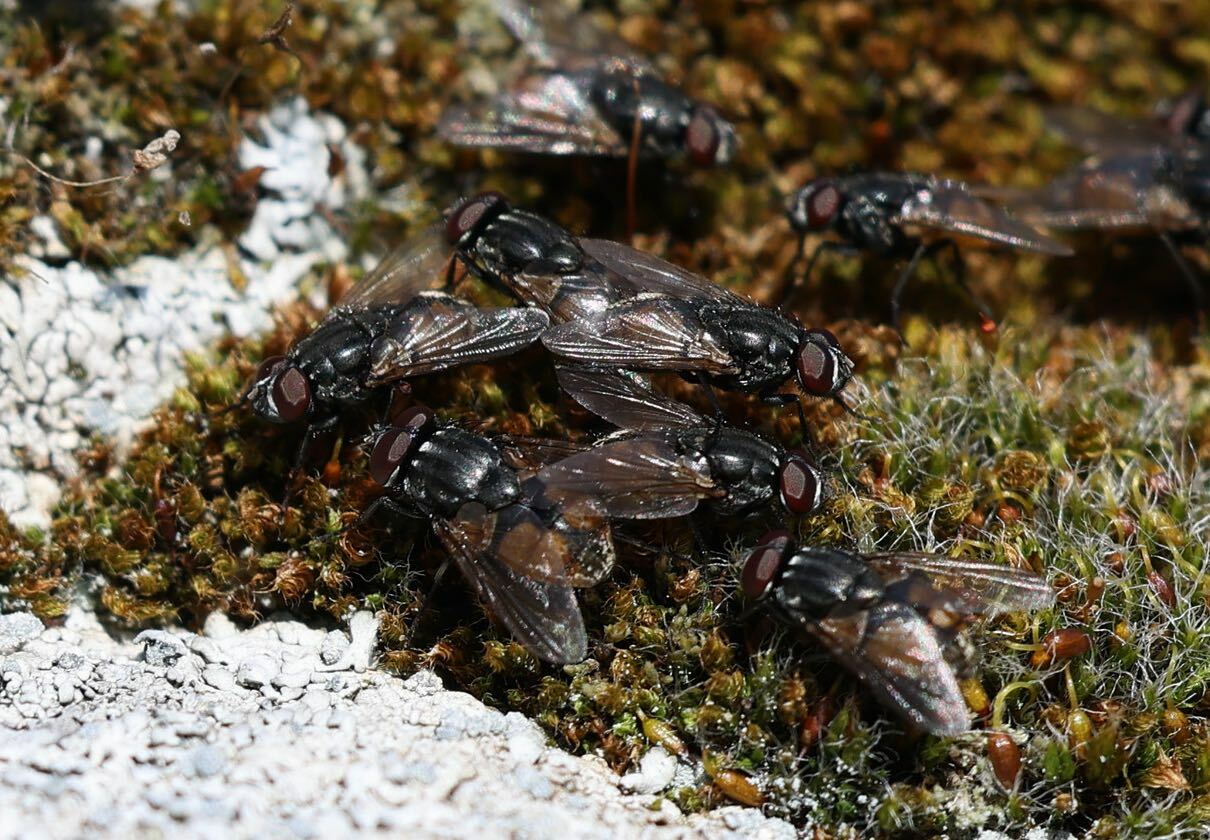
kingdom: Animalia
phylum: Arthropoda
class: Insecta
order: Diptera
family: Muscidae
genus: Musca
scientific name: Musca autumnalis
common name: Face fly
